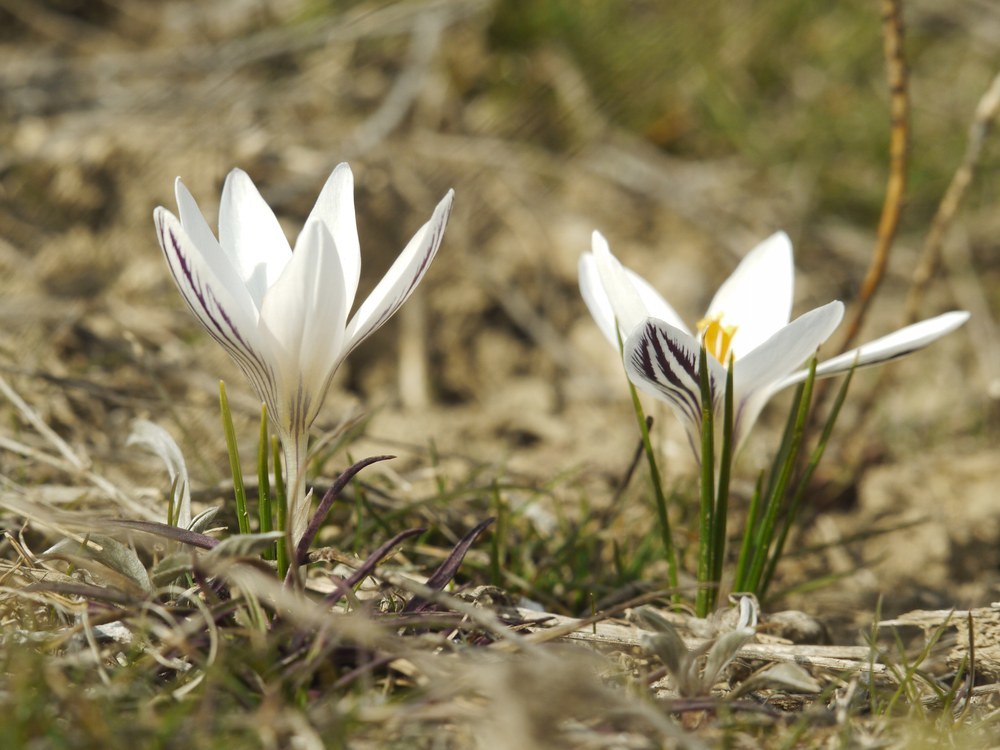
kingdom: Plantae
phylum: Tracheophyta
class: Liliopsida
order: Asparagales
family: Iridaceae
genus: Crocus
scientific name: Crocus reticulatus
